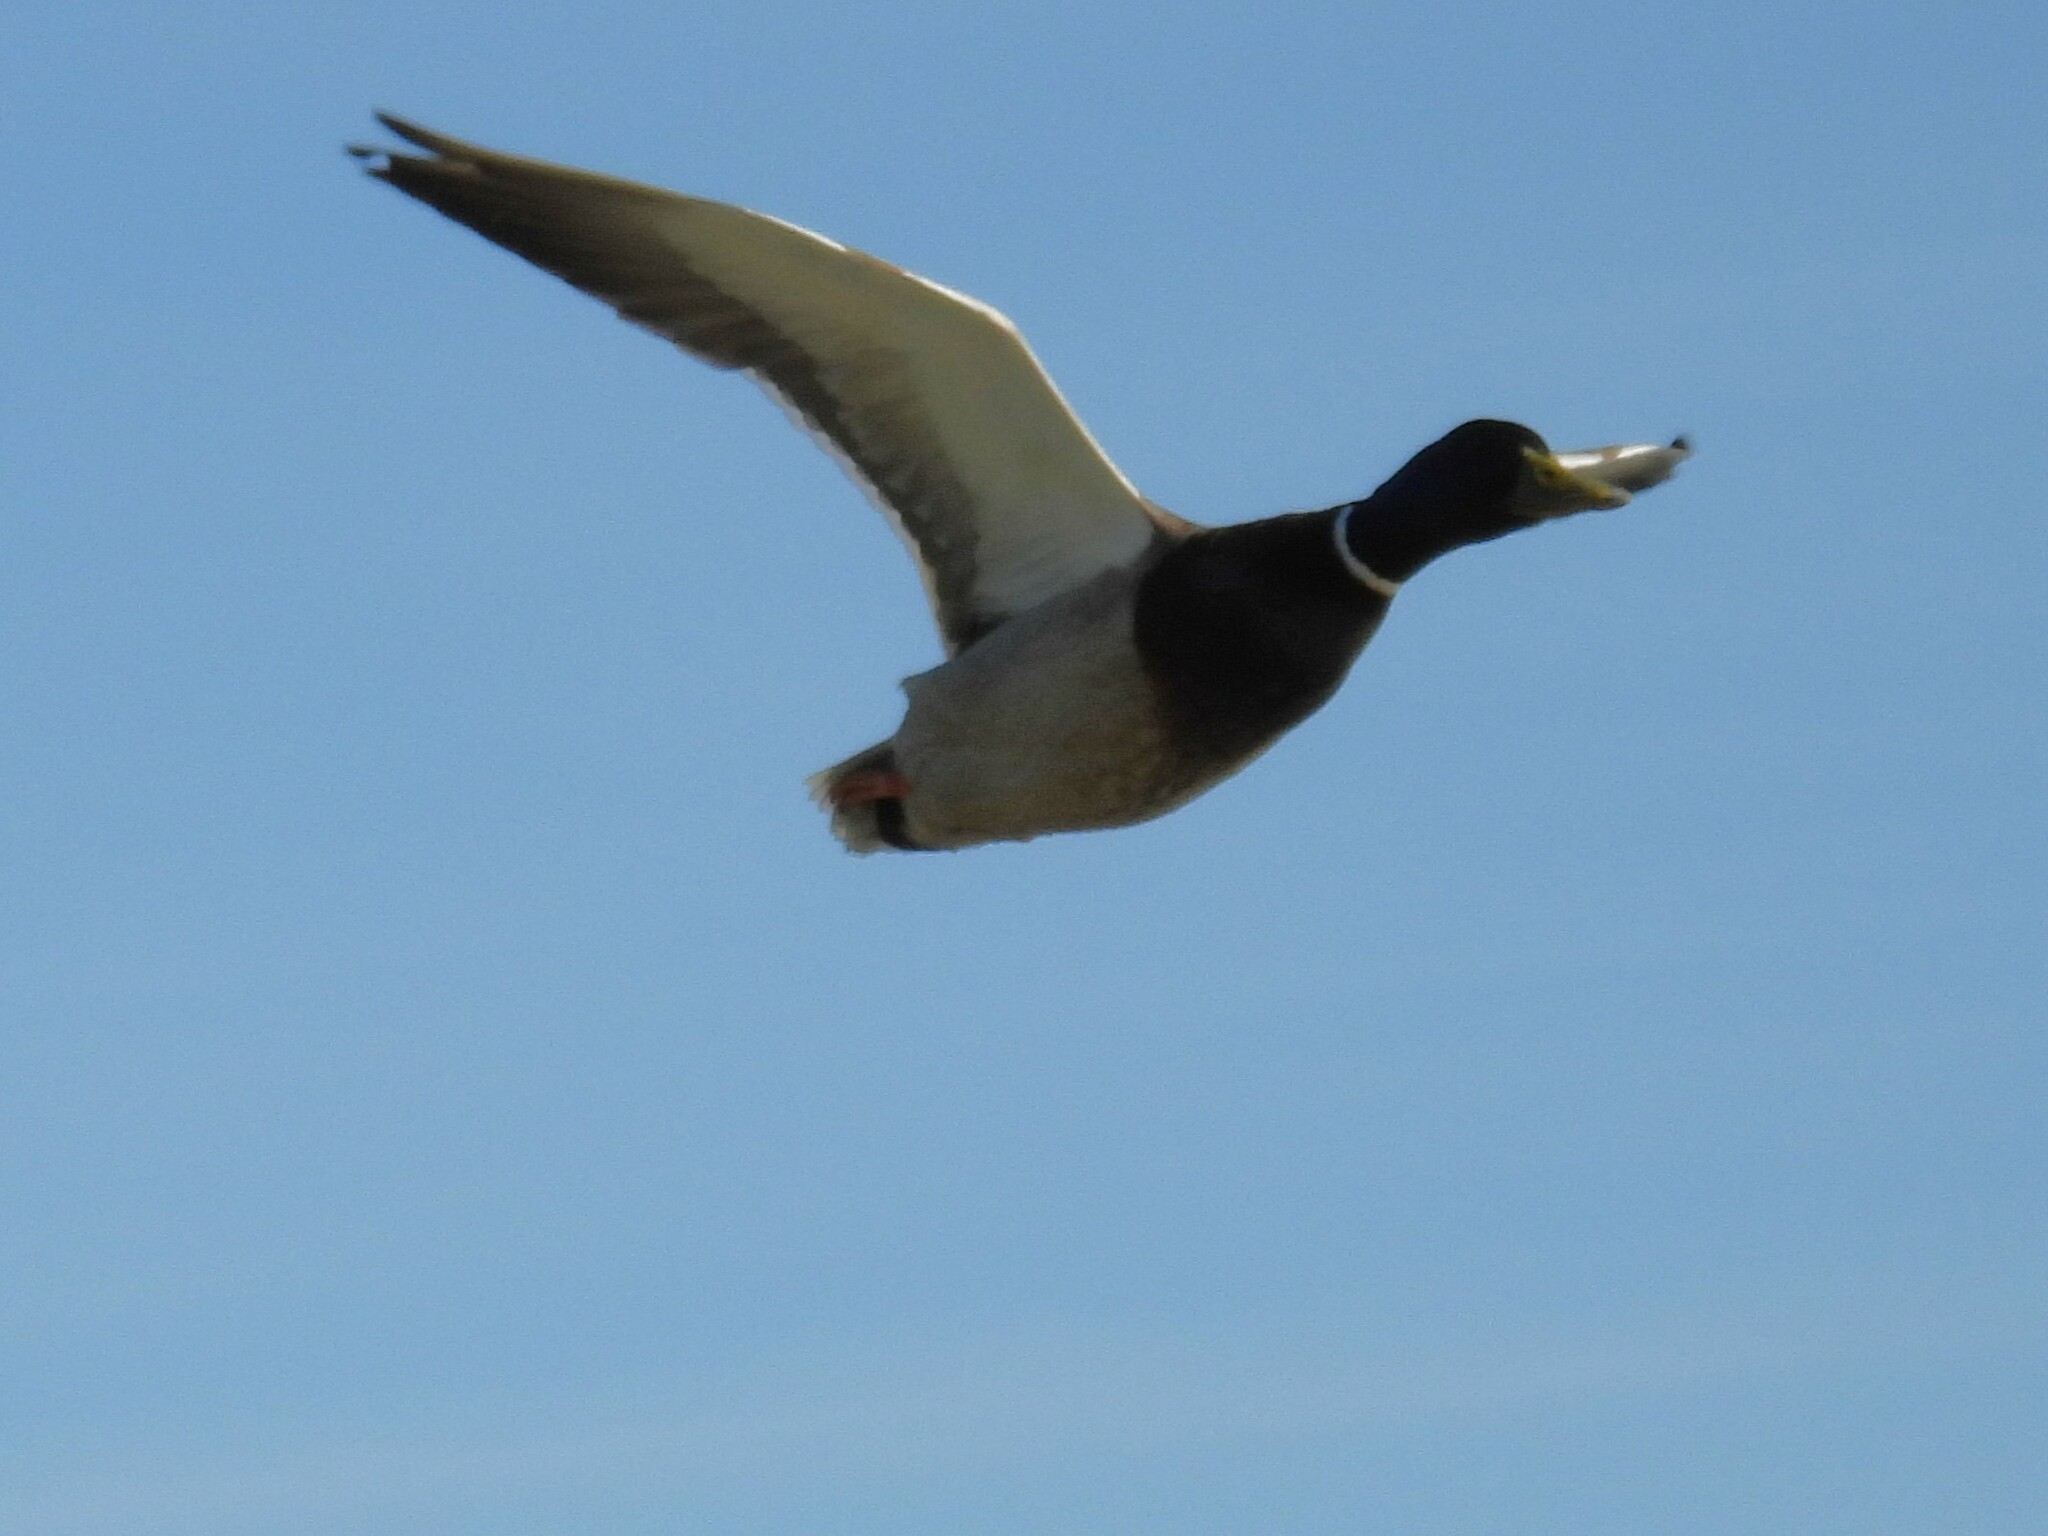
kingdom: Animalia
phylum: Chordata
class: Aves
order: Anseriformes
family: Anatidae
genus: Anas
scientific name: Anas platyrhynchos
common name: Mallard
